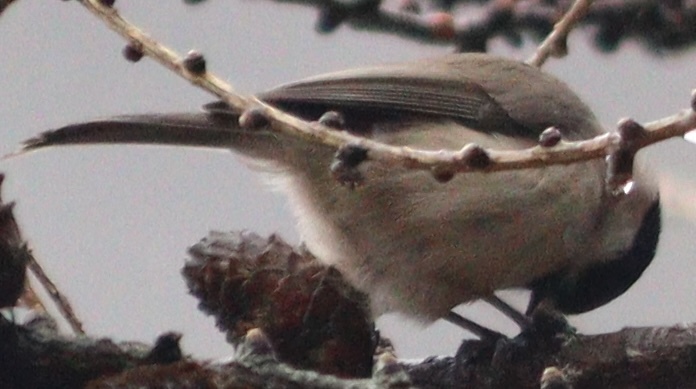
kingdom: Animalia
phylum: Chordata
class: Aves
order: Passeriformes
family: Paridae
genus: Poecile
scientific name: Poecile palustris
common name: Marsh tit
